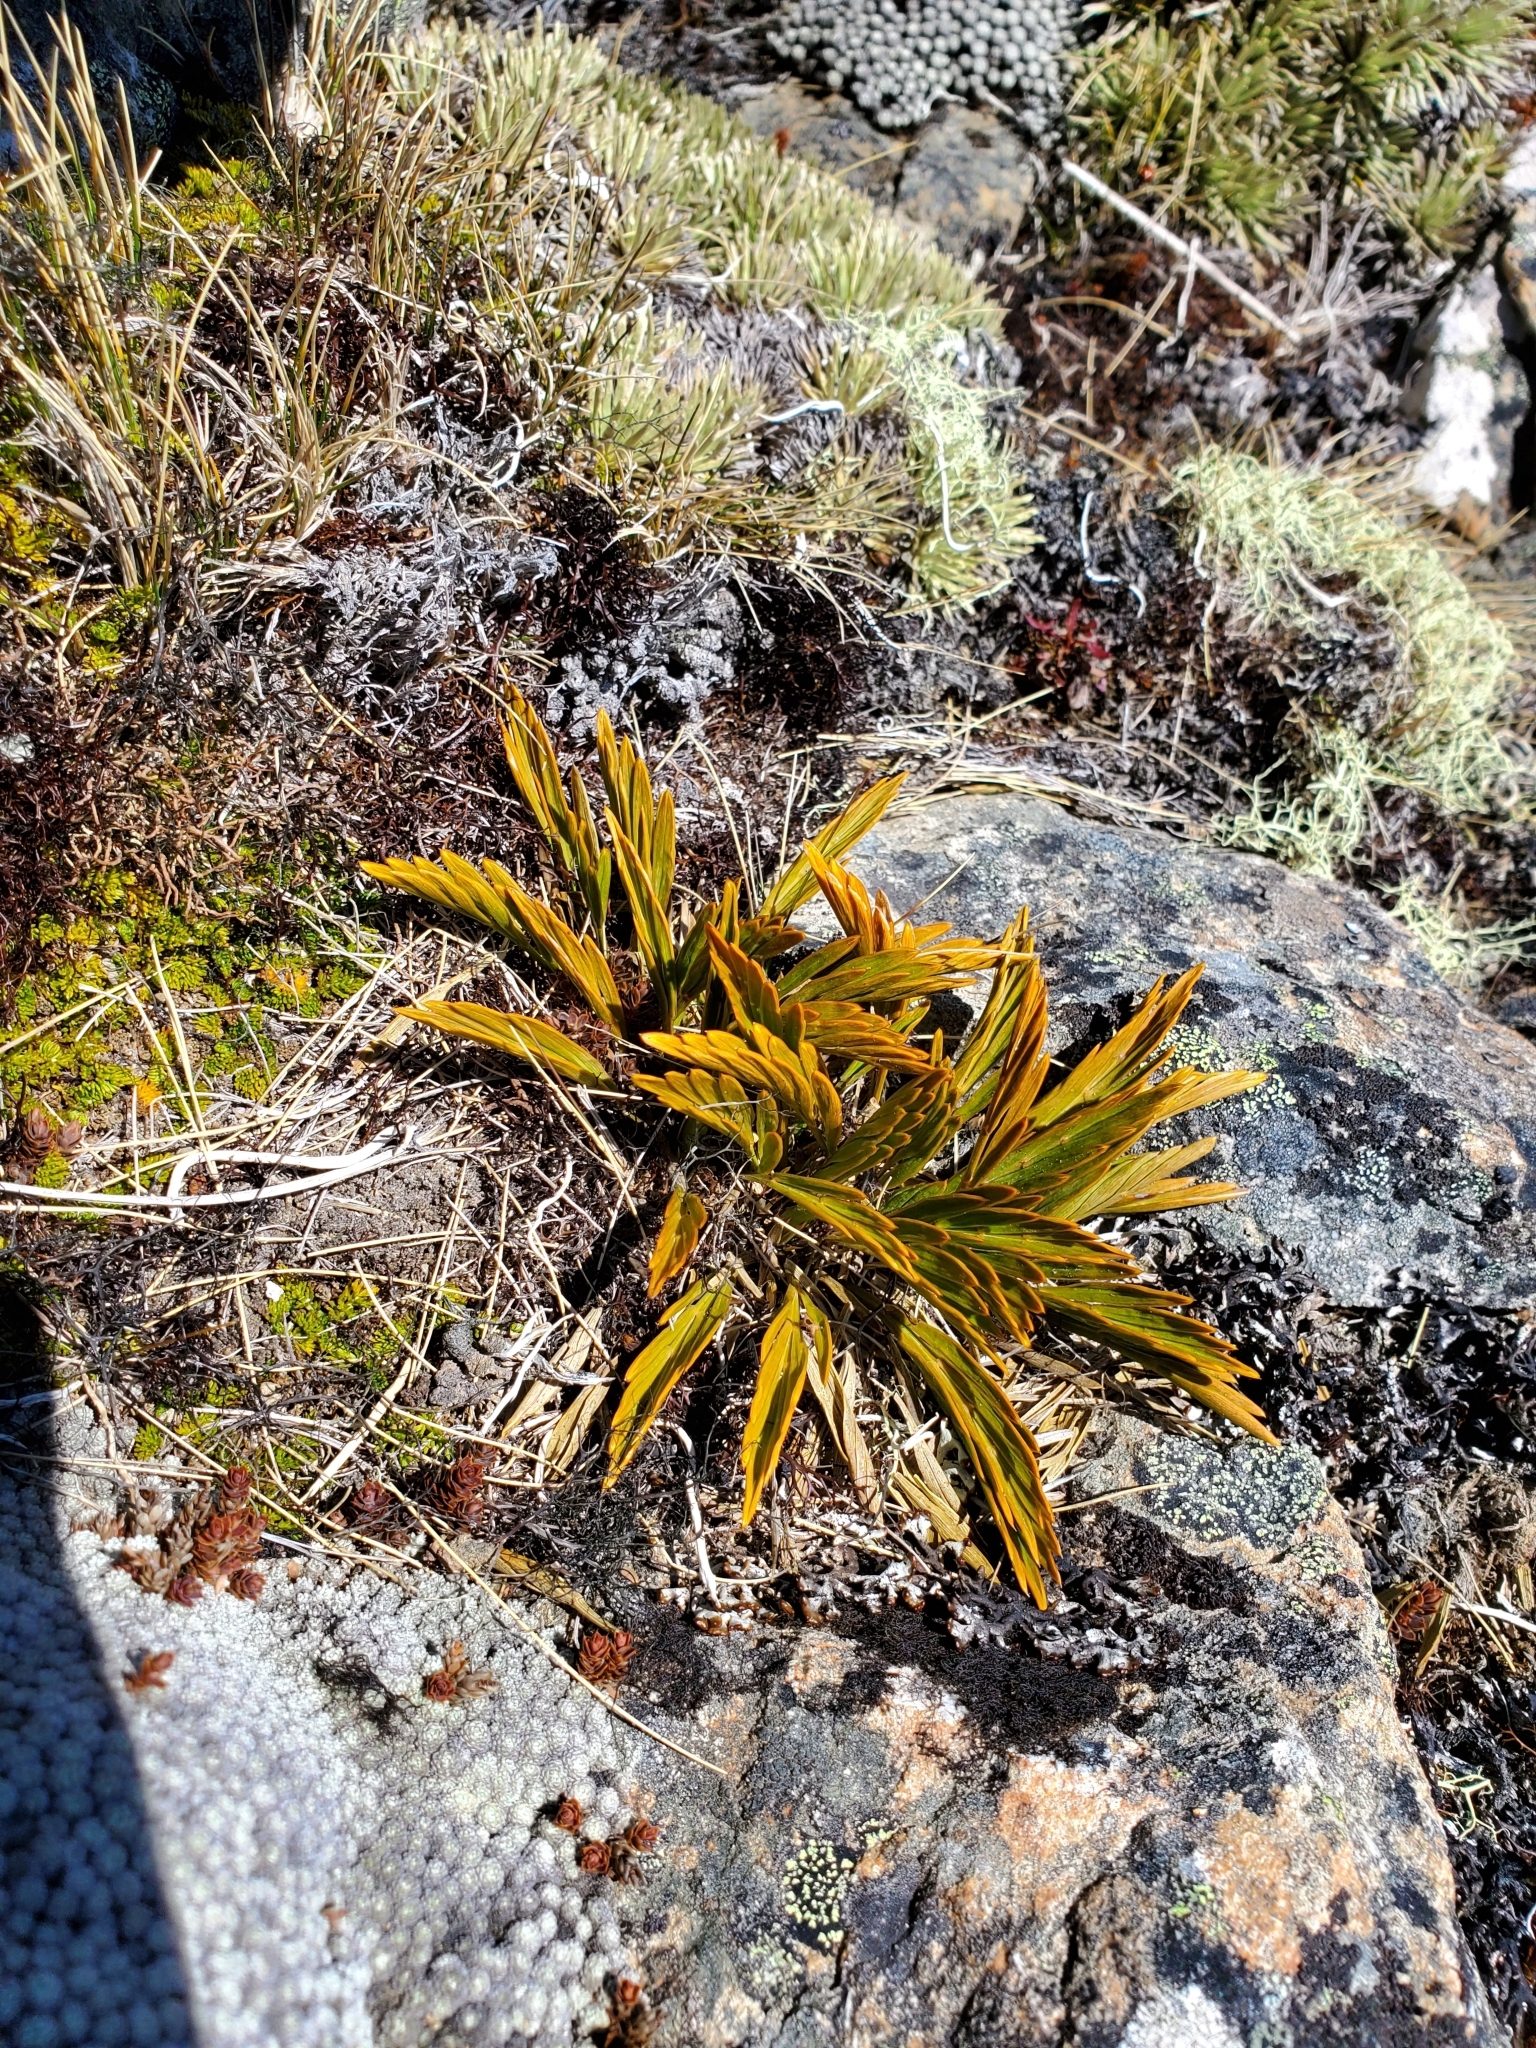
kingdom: Plantae
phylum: Tracheophyta
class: Magnoliopsida
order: Apiales
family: Apiaceae
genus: Aciphylla
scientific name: Aciphylla monroi
